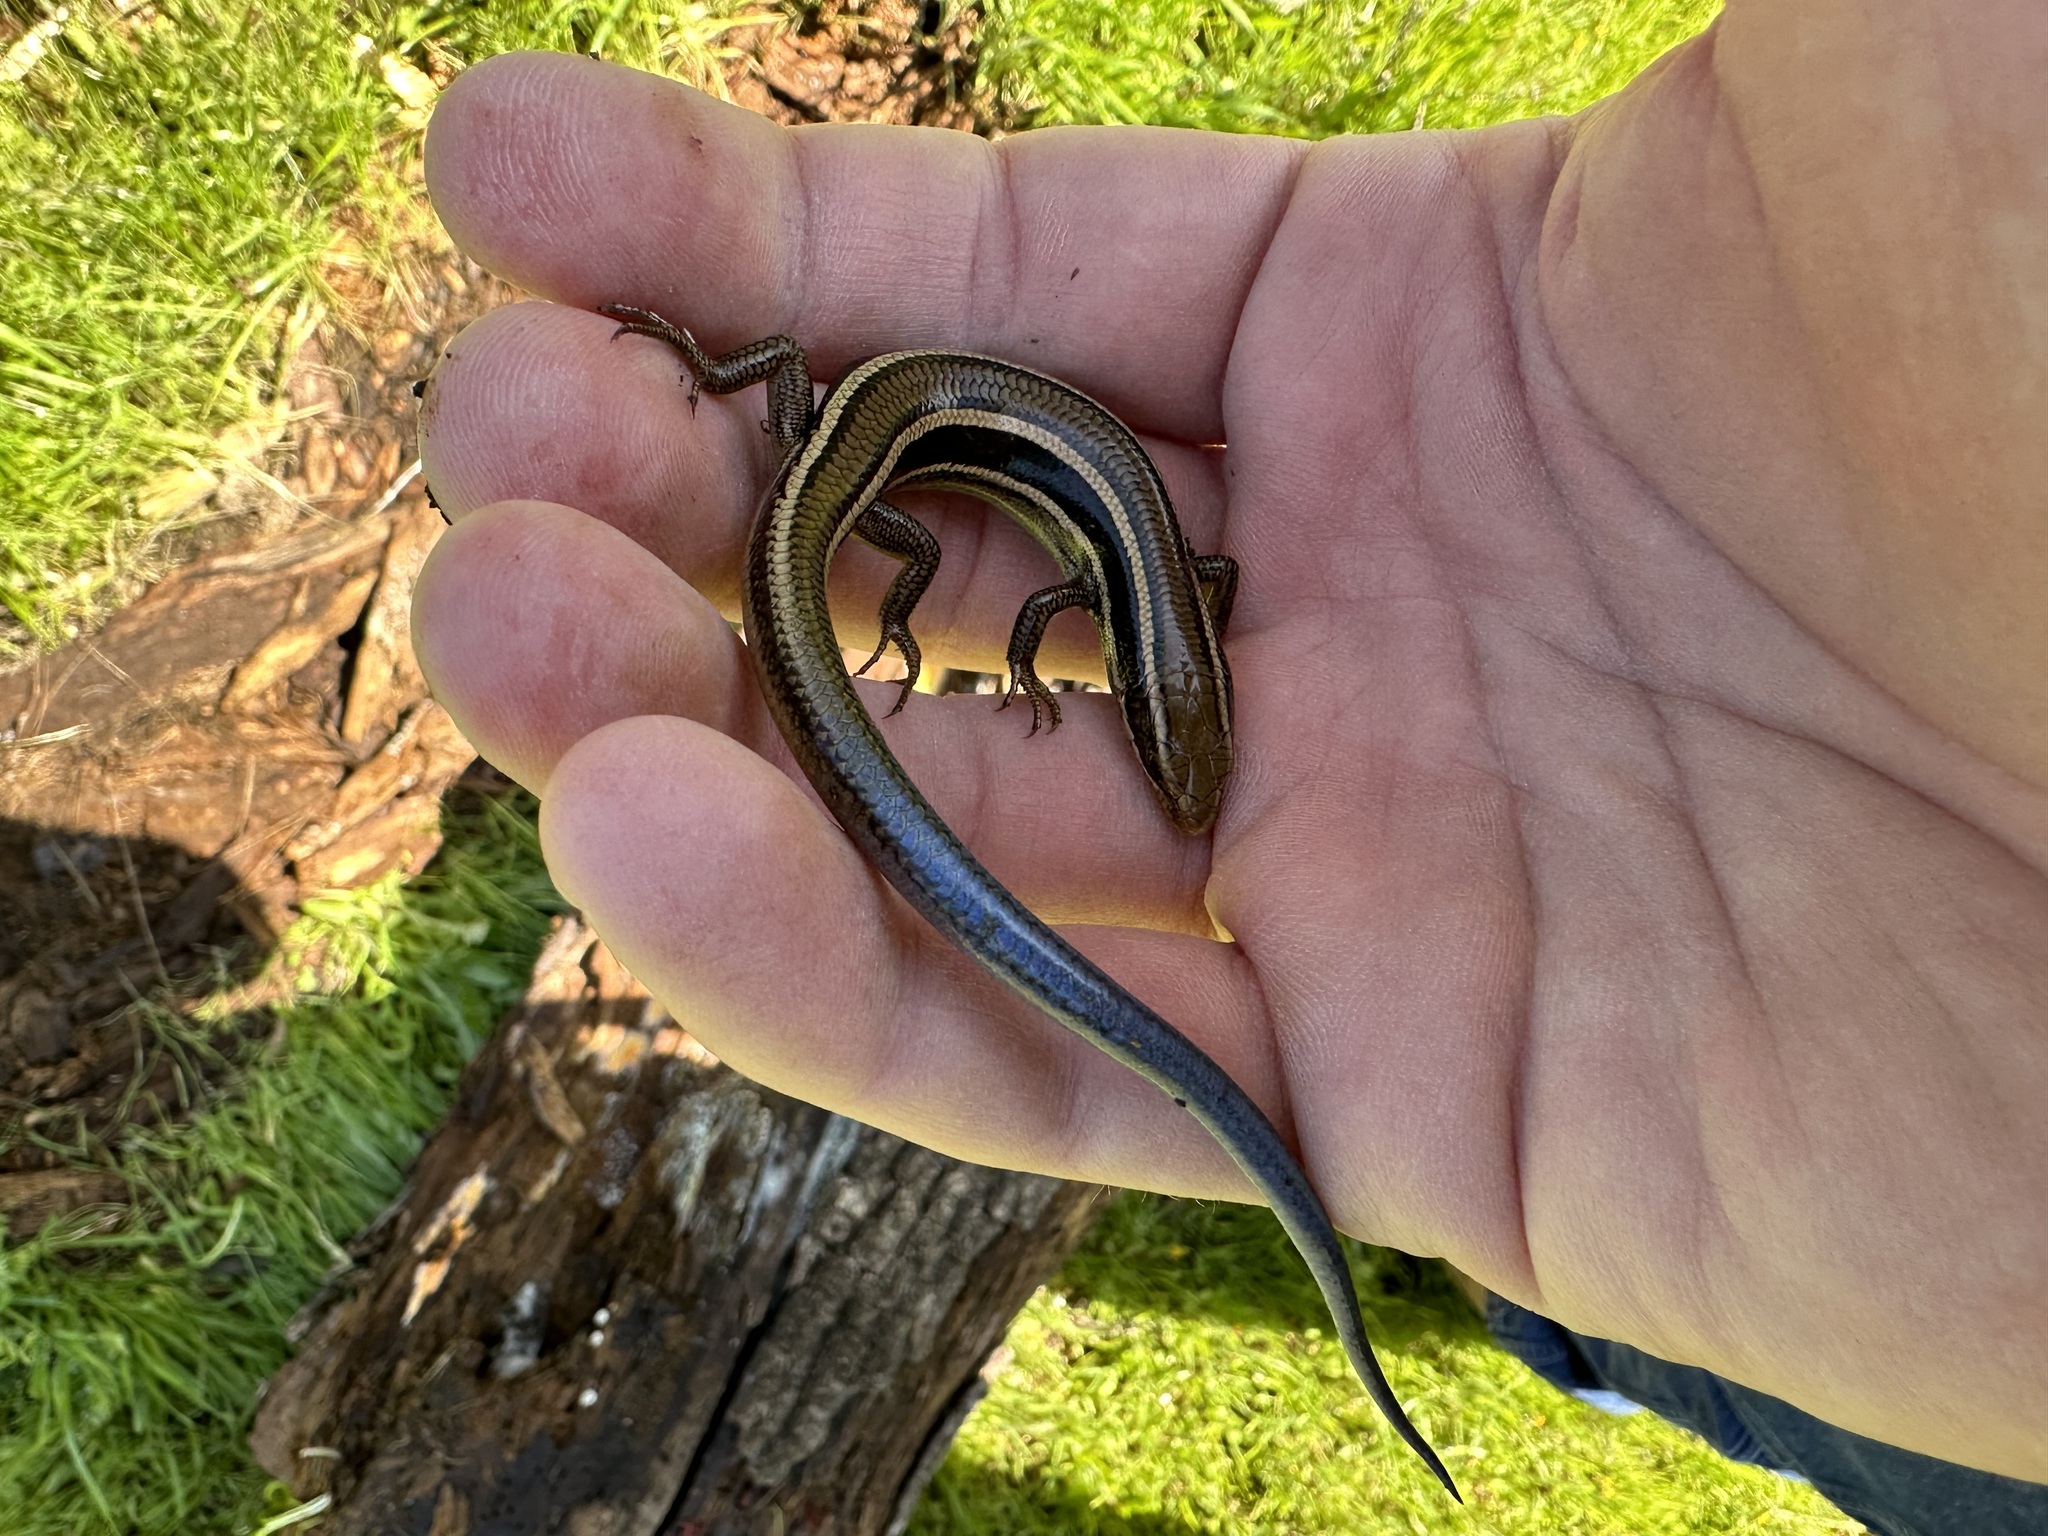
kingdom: Animalia
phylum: Chordata
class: Squamata
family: Scincidae
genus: Plestiodon
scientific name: Plestiodon skiltonianus
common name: Coronado island skink [interparietalis]
